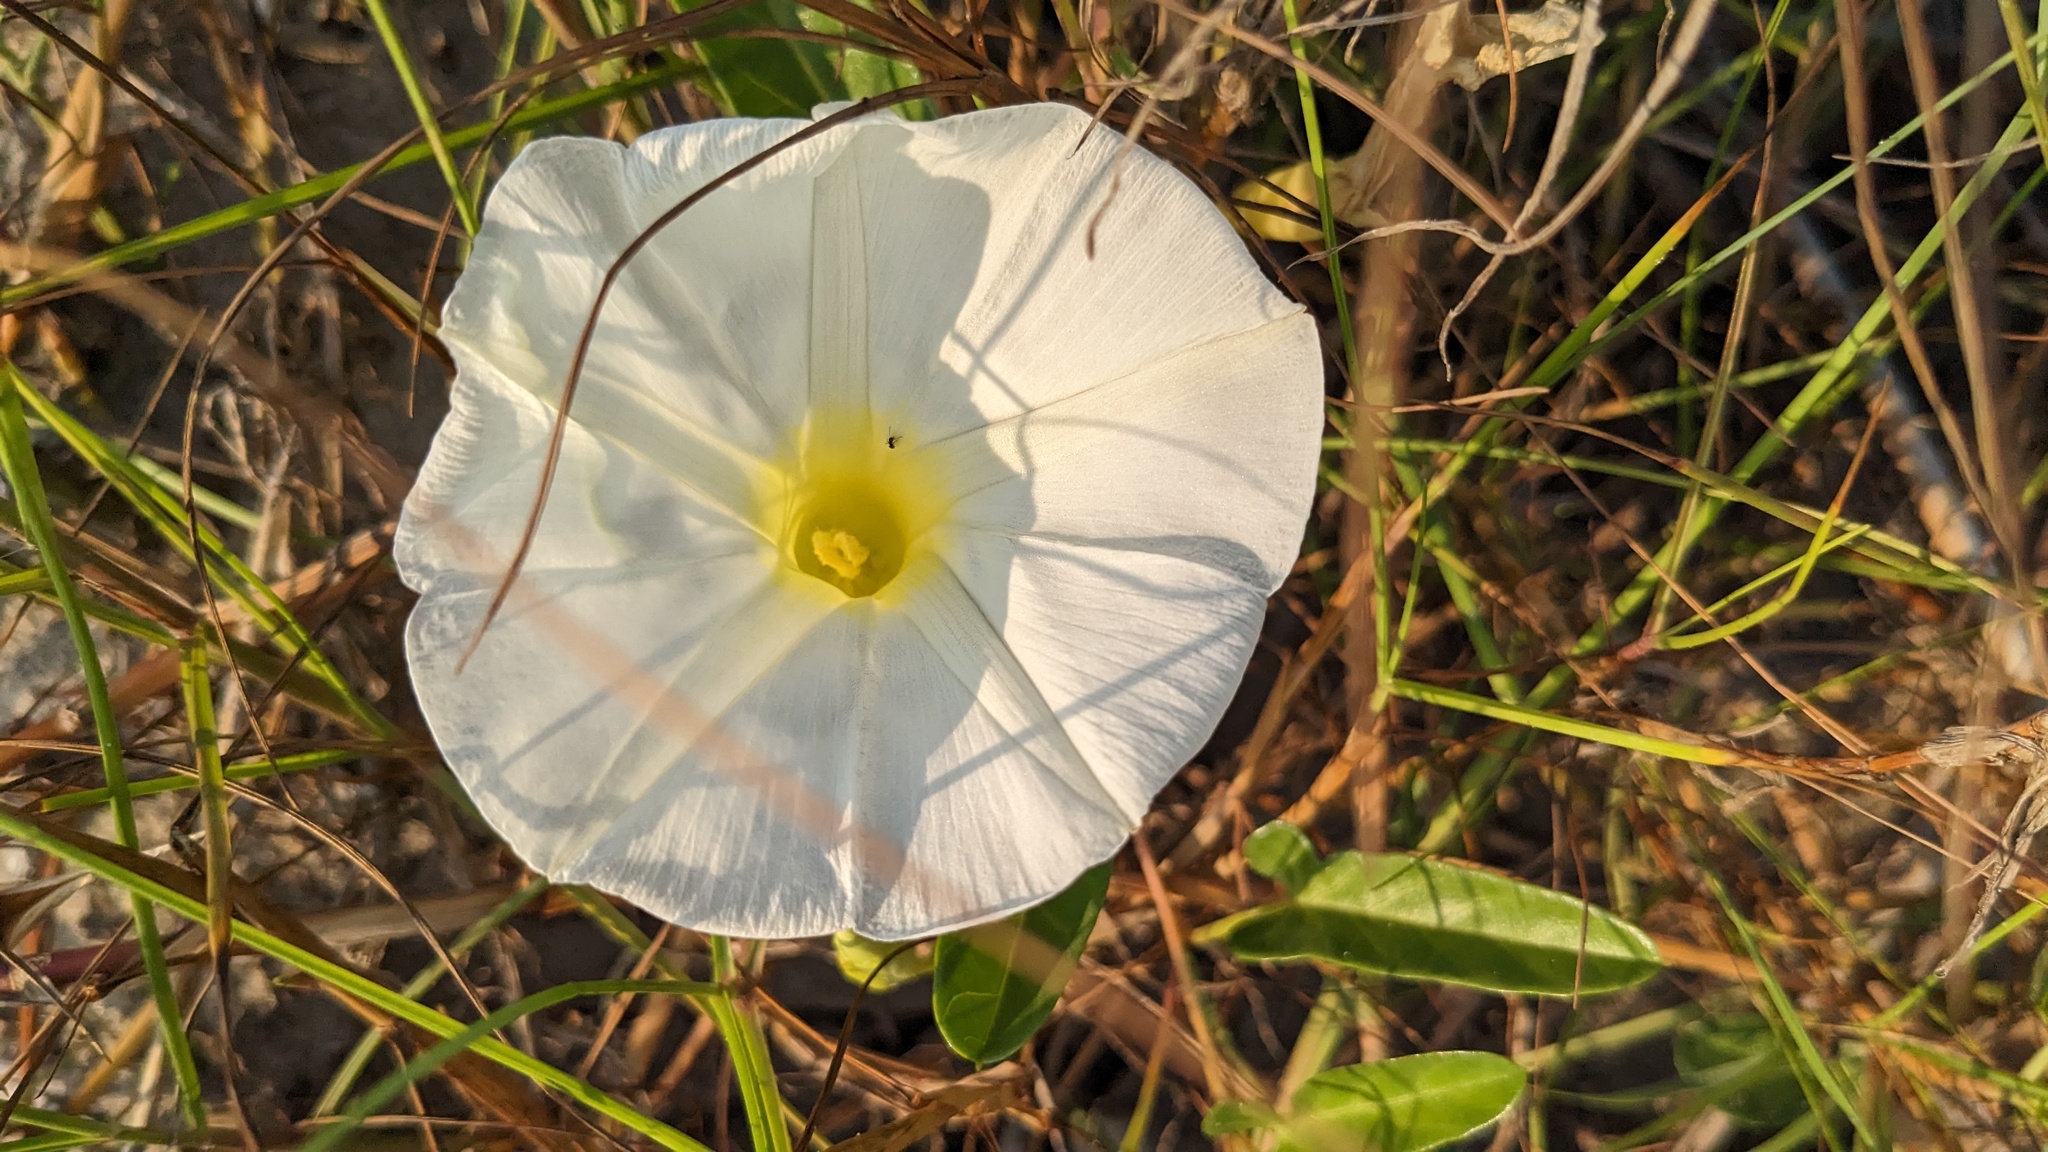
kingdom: Plantae
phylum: Tracheophyta
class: Magnoliopsida
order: Solanales
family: Convolvulaceae
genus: Ipomoea
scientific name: Ipomoea imperati
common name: Fiddle-leaf morning-glory
